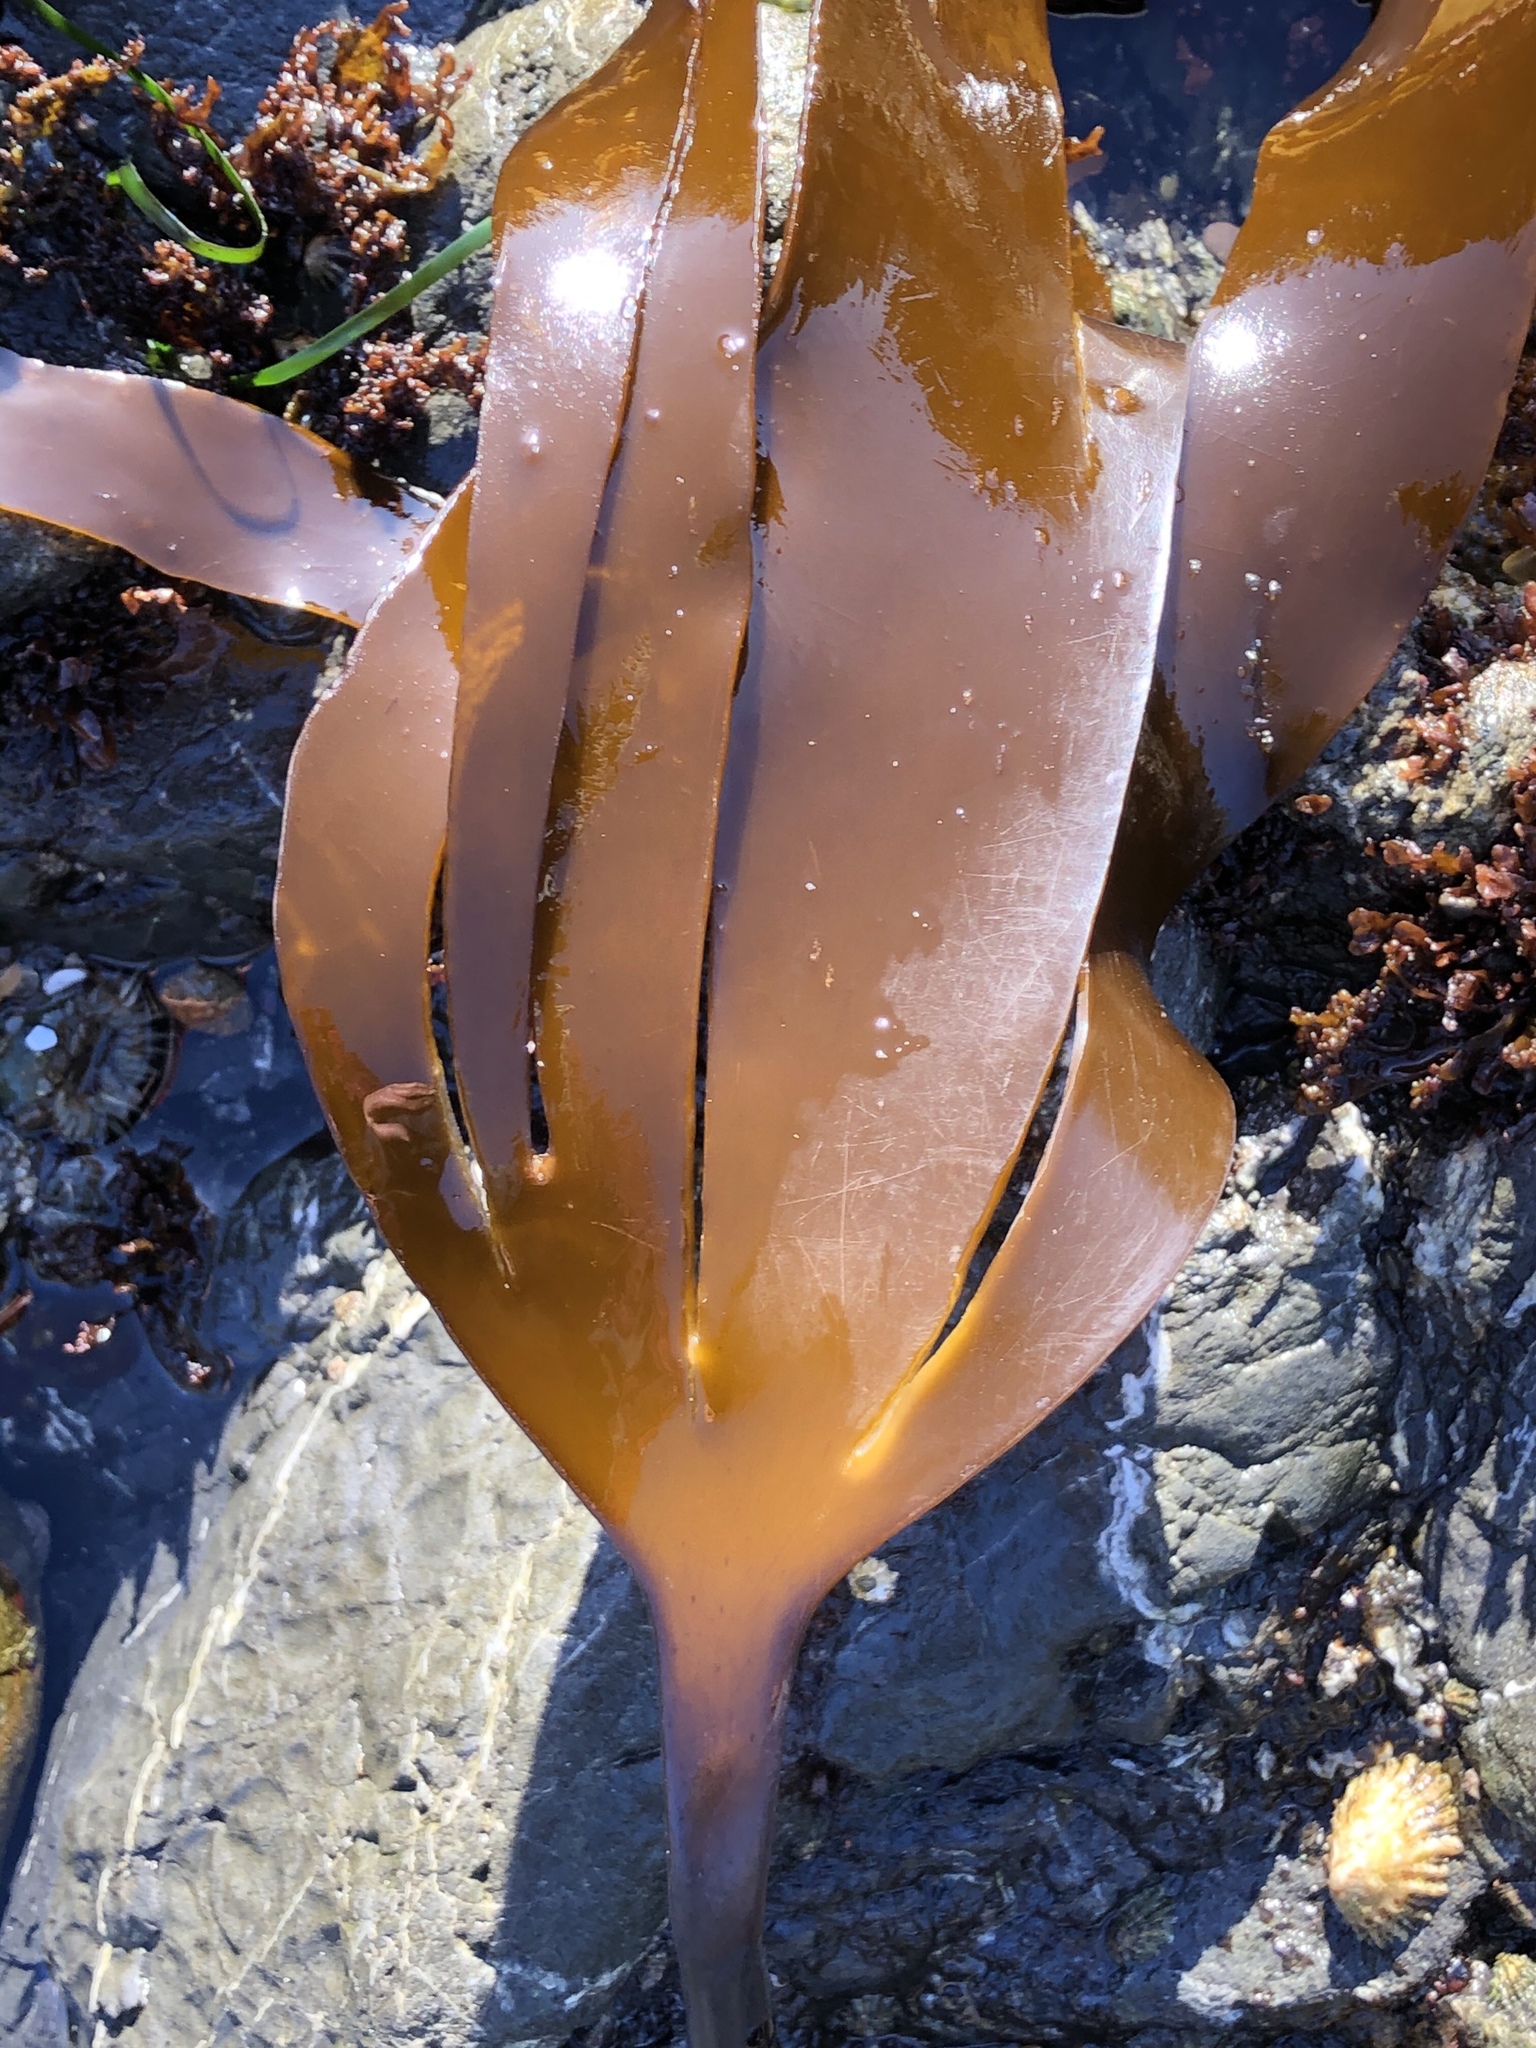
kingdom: Chromista
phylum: Ochrophyta
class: Phaeophyceae
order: Laminariales
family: Laminariaceae
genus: Laminaria
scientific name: Laminaria setchellii
